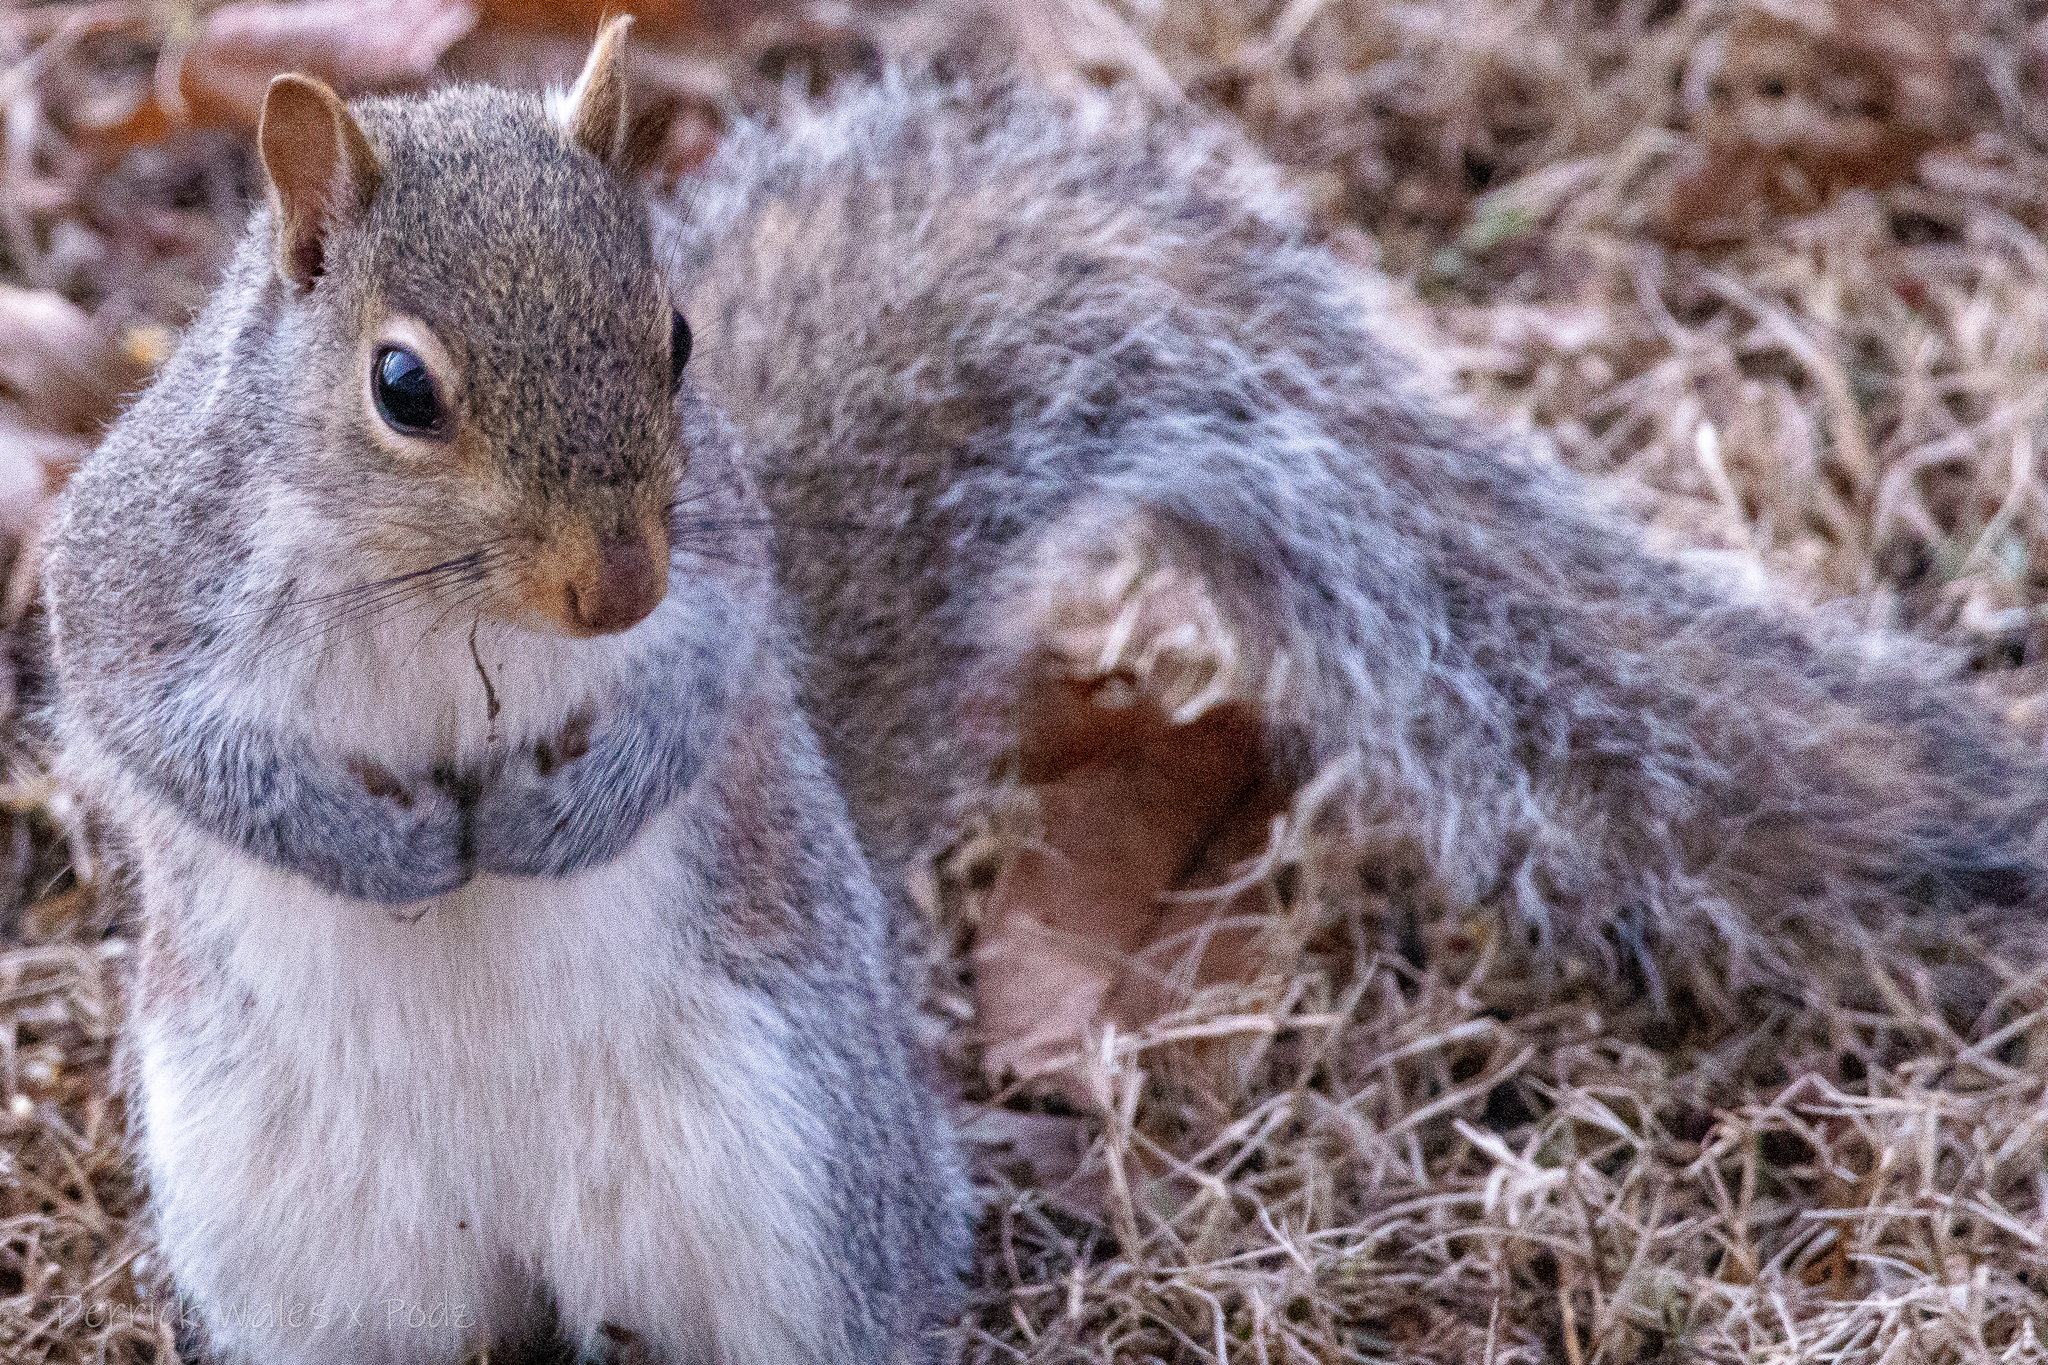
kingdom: Animalia
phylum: Chordata
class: Mammalia
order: Rodentia
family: Sciuridae
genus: Sciurus
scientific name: Sciurus carolinensis
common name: Eastern gray squirrel
